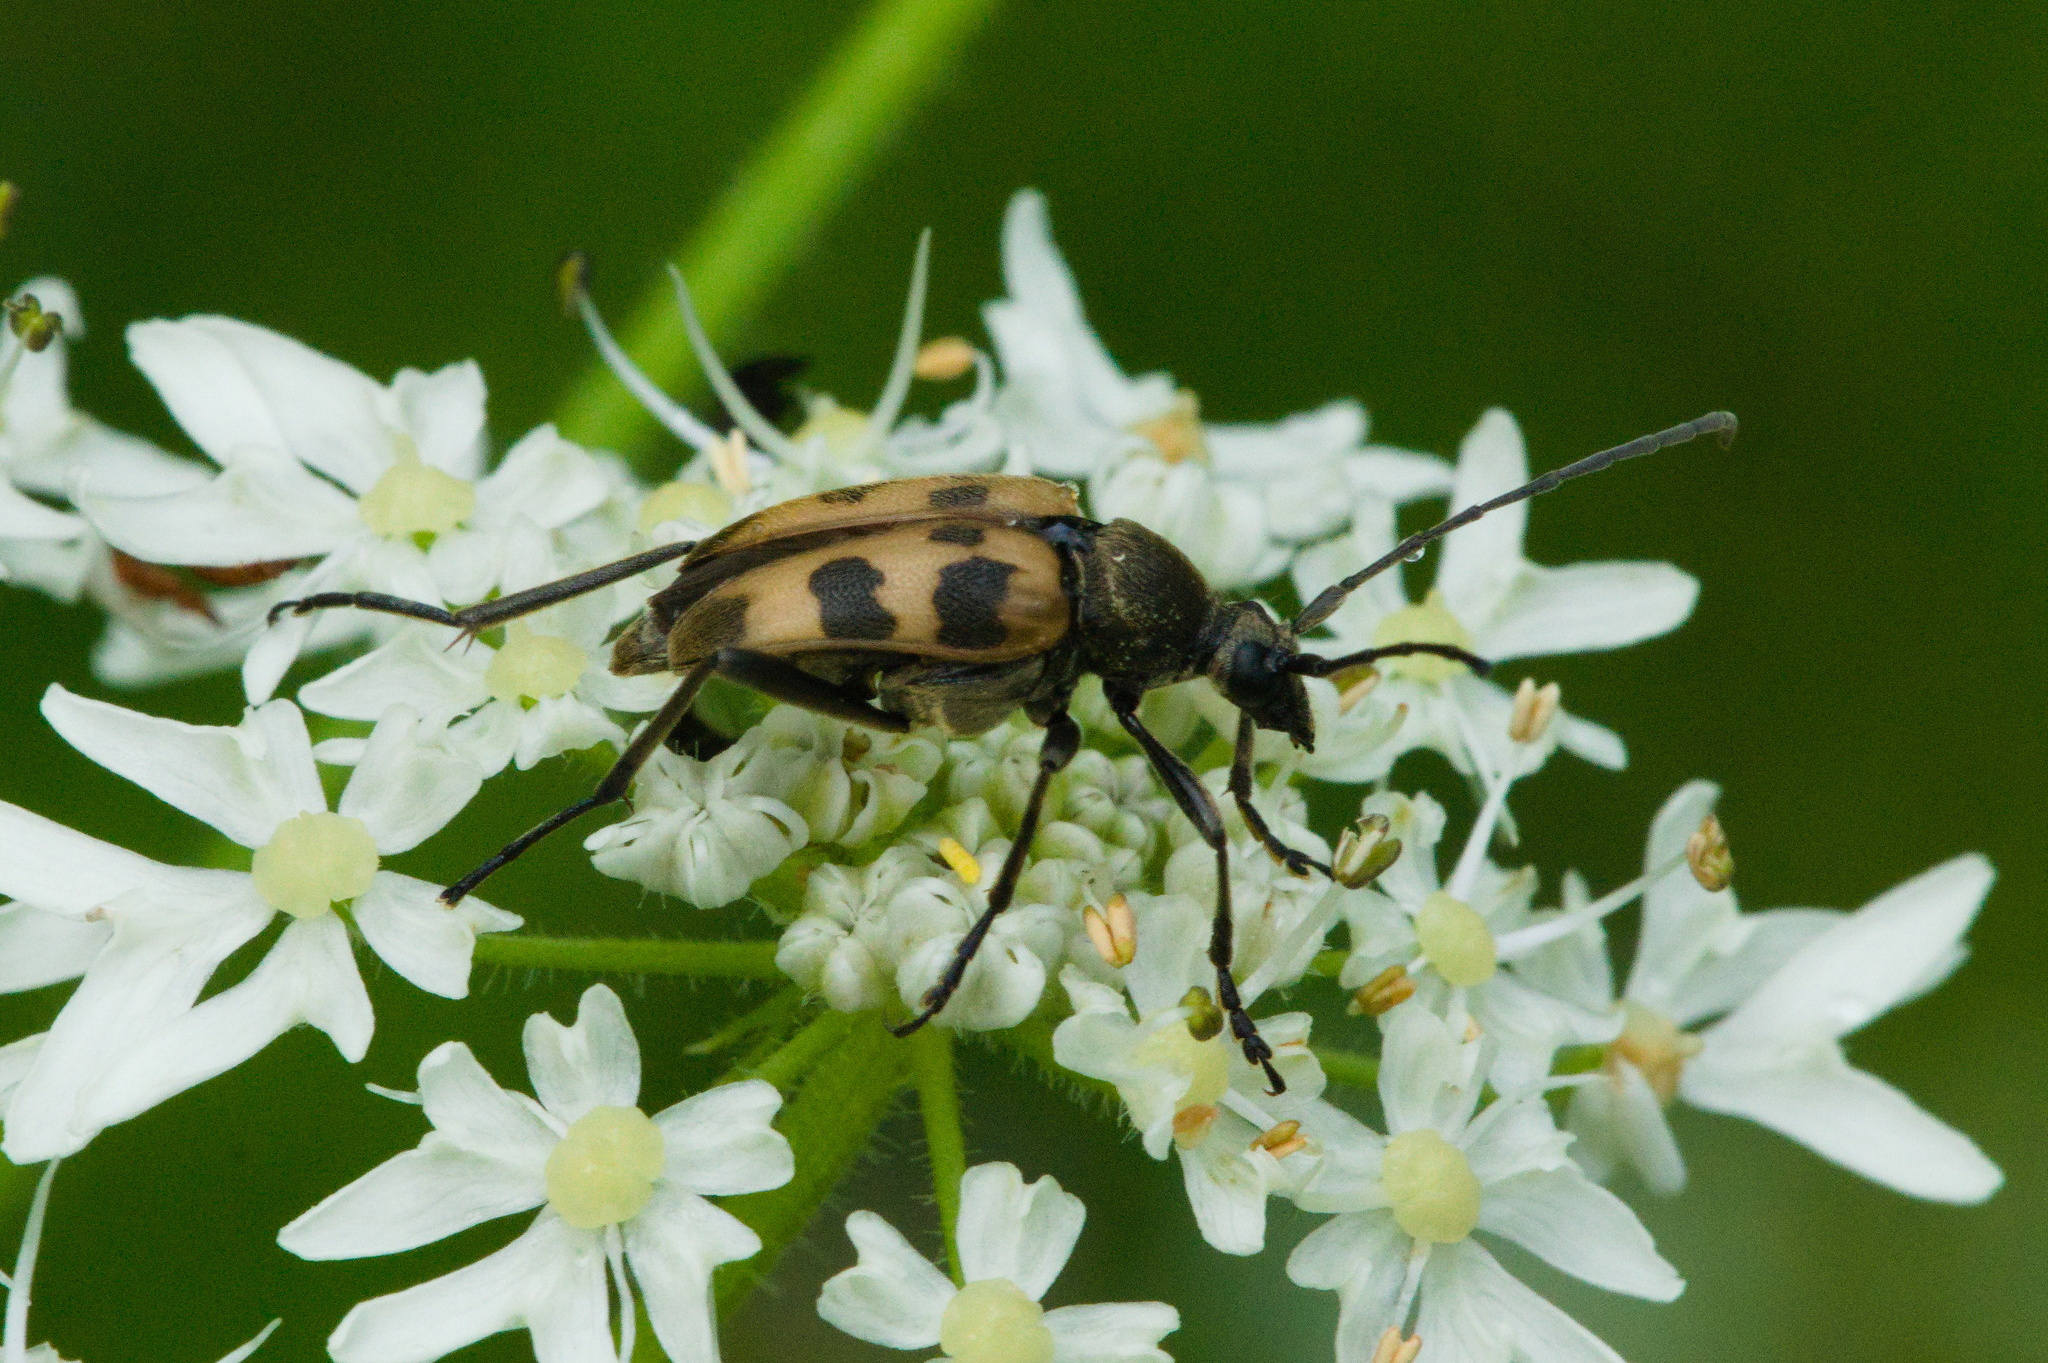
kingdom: Animalia
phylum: Arthropoda
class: Insecta
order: Coleoptera
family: Cerambycidae
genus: Pachytodes
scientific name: Pachytodes cerambyciformis
